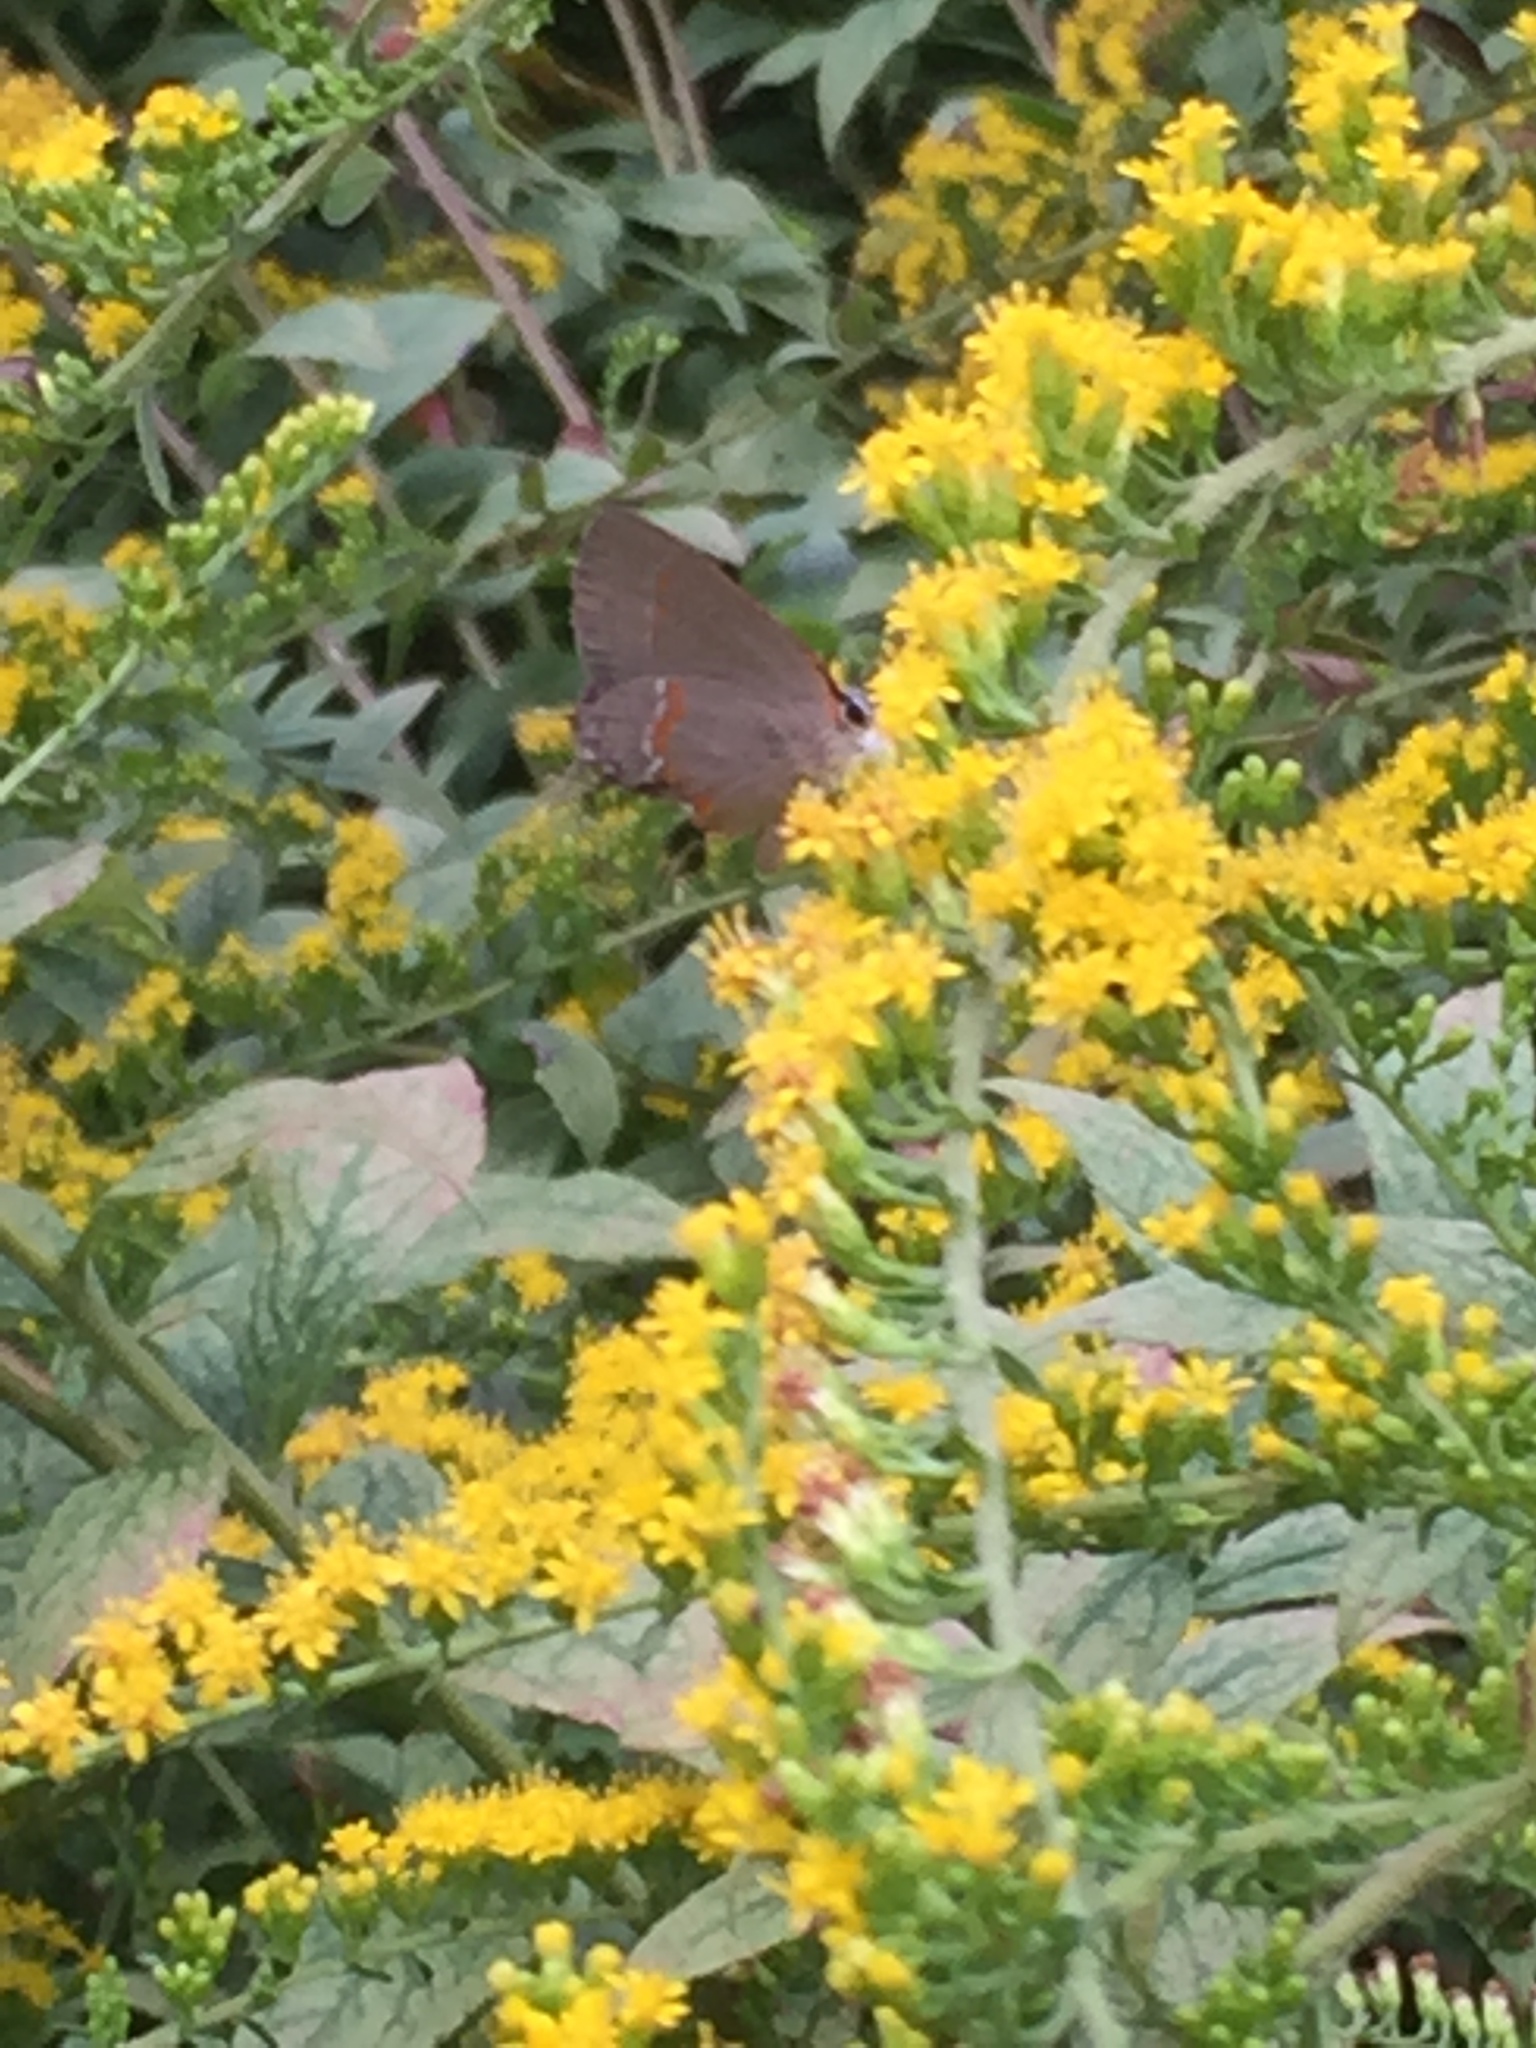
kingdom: Animalia
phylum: Arthropoda
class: Insecta
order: Lepidoptera
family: Lycaenidae
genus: Calycopis
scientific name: Calycopis cecrops
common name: Red-banded hairstreak
